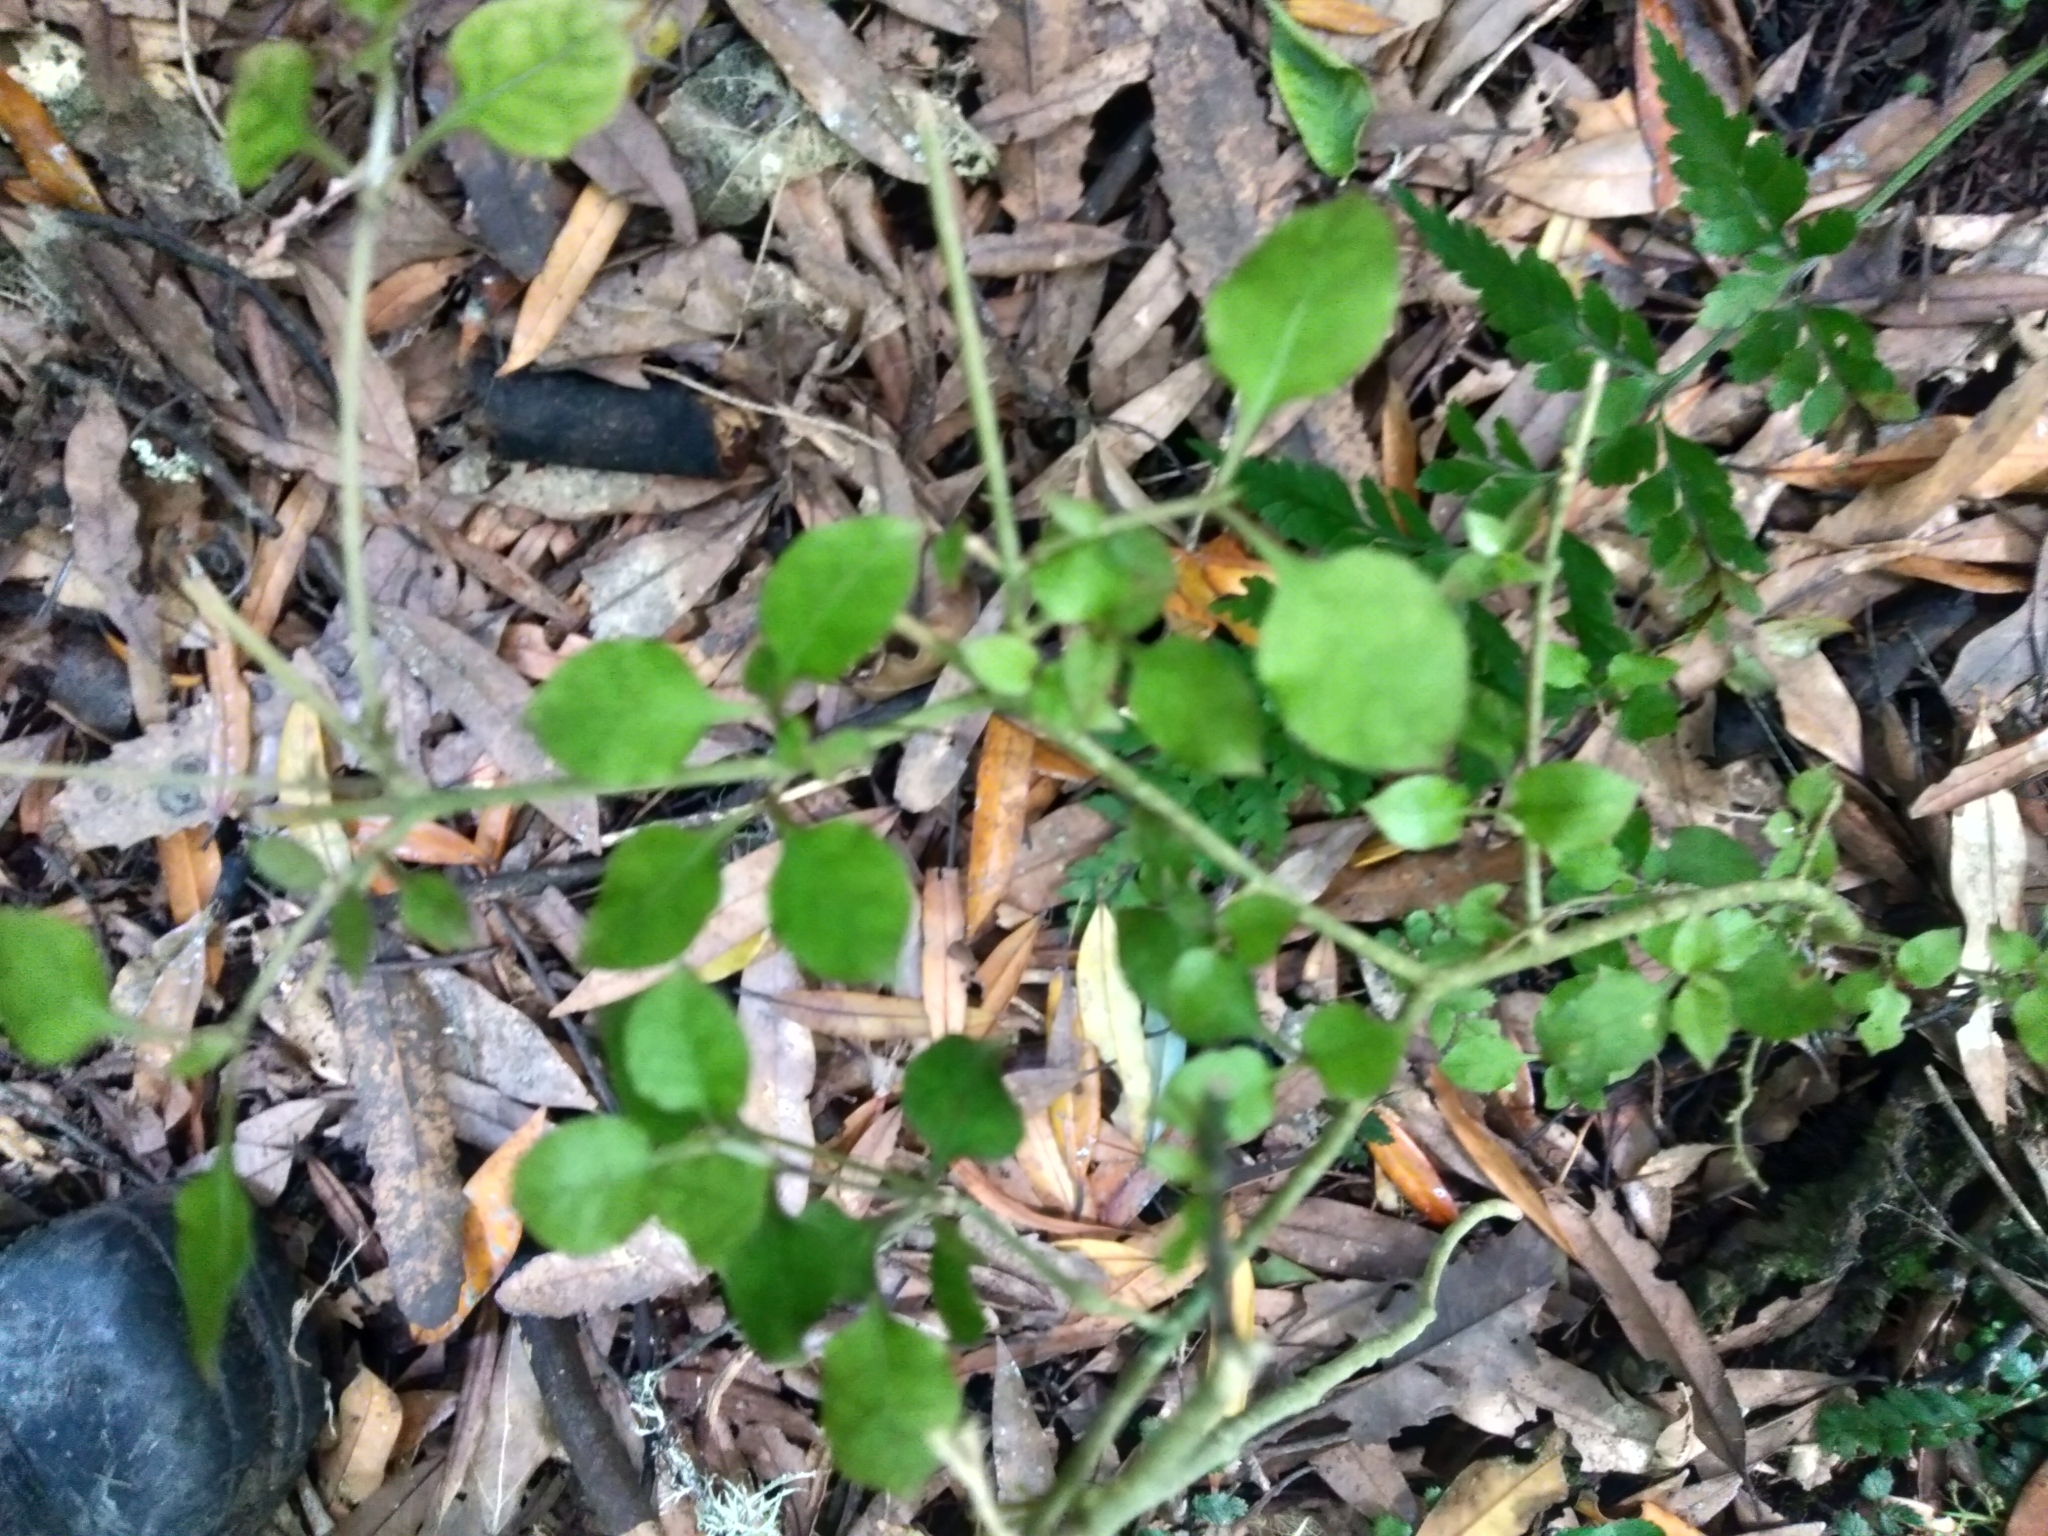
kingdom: Plantae
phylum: Tracheophyta
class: Magnoliopsida
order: Gentianales
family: Rubiaceae
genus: Coprosma
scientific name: Coprosma areolata
